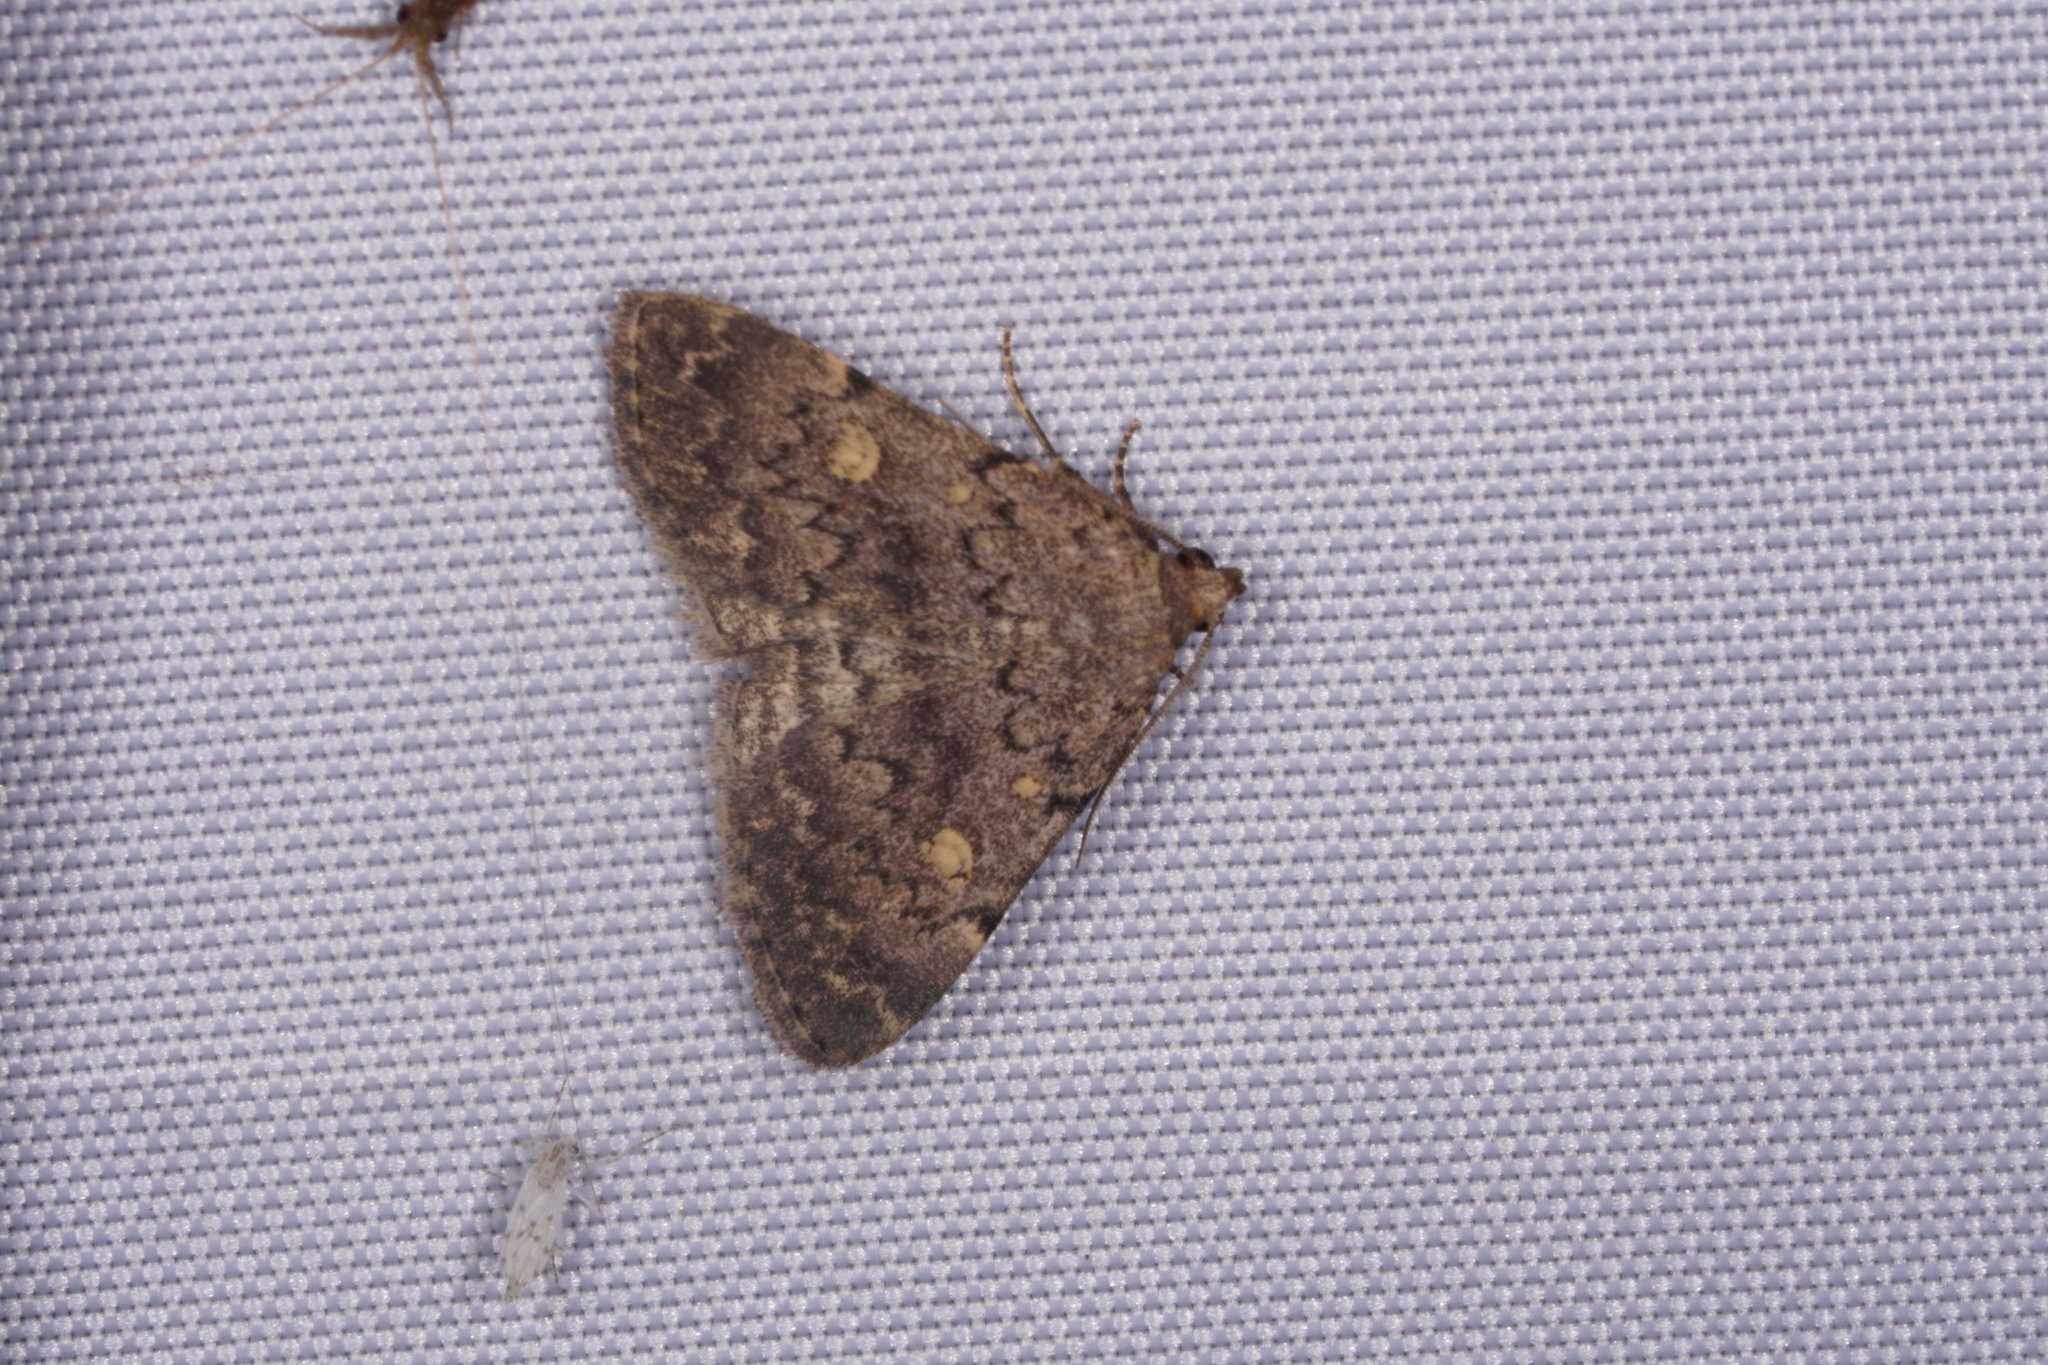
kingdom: Animalia
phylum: Arthropoda
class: Insecta
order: Lepidoptera
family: Erebidae
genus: Idia
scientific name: Idia aemula
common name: Common idia moth
